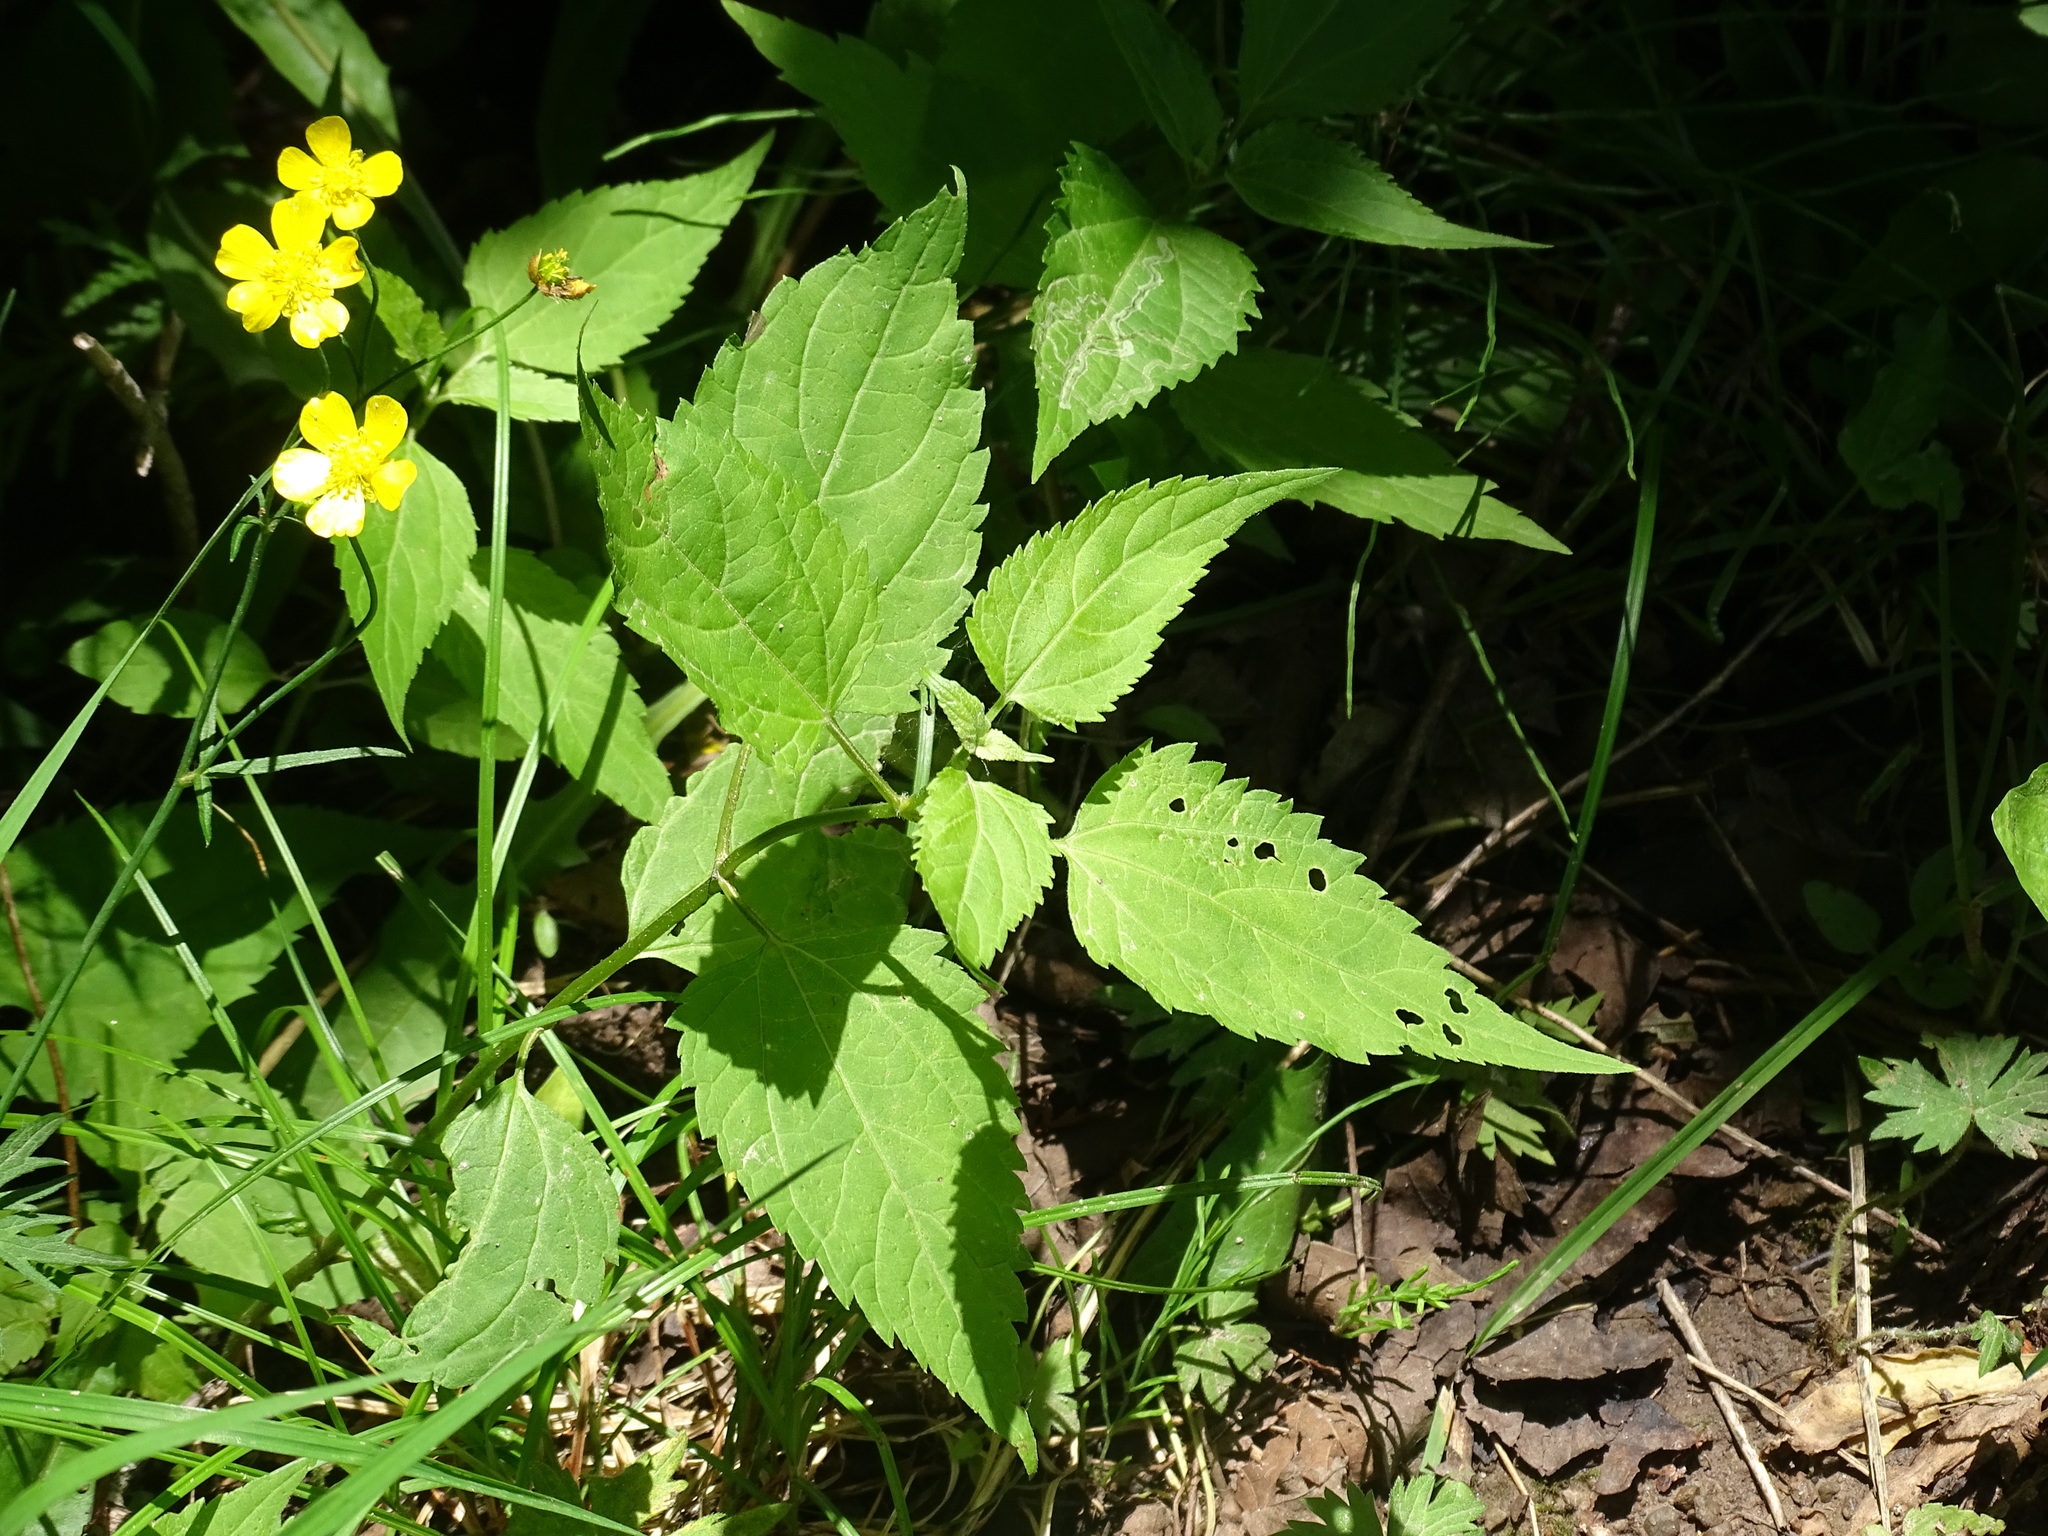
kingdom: Plantae
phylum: Tracheophyta
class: Magnoliopsida
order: Rosales
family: Urticaceae
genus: Boehmeria
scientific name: Boehmeria cylindrica
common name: Bog-hemp
